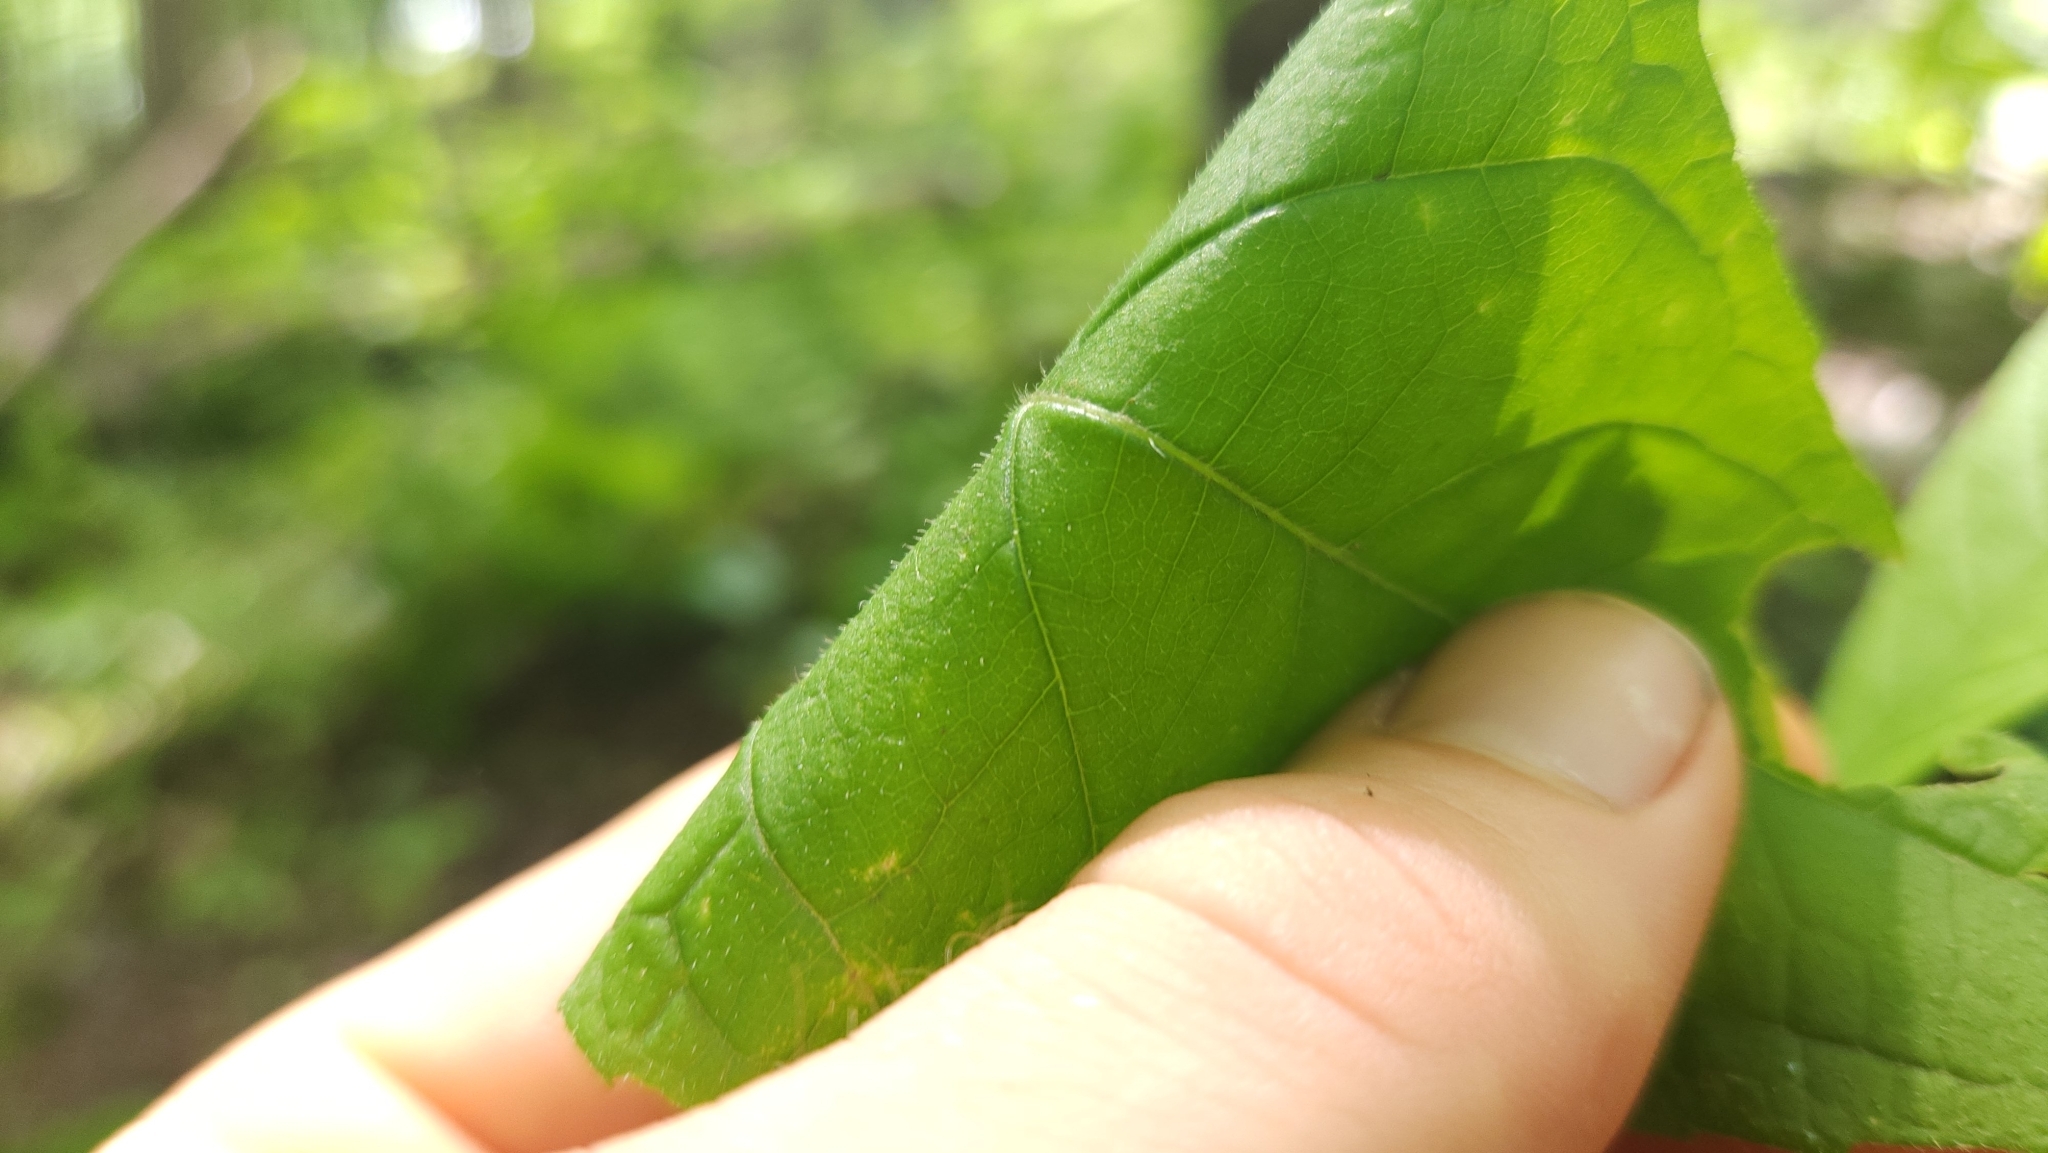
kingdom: Plantae
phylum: Tracheophyta
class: Magnoliopsida
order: Asterales
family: Asteraceae
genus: Verbesina
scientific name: Verbesina alternifolia
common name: Wingstem
